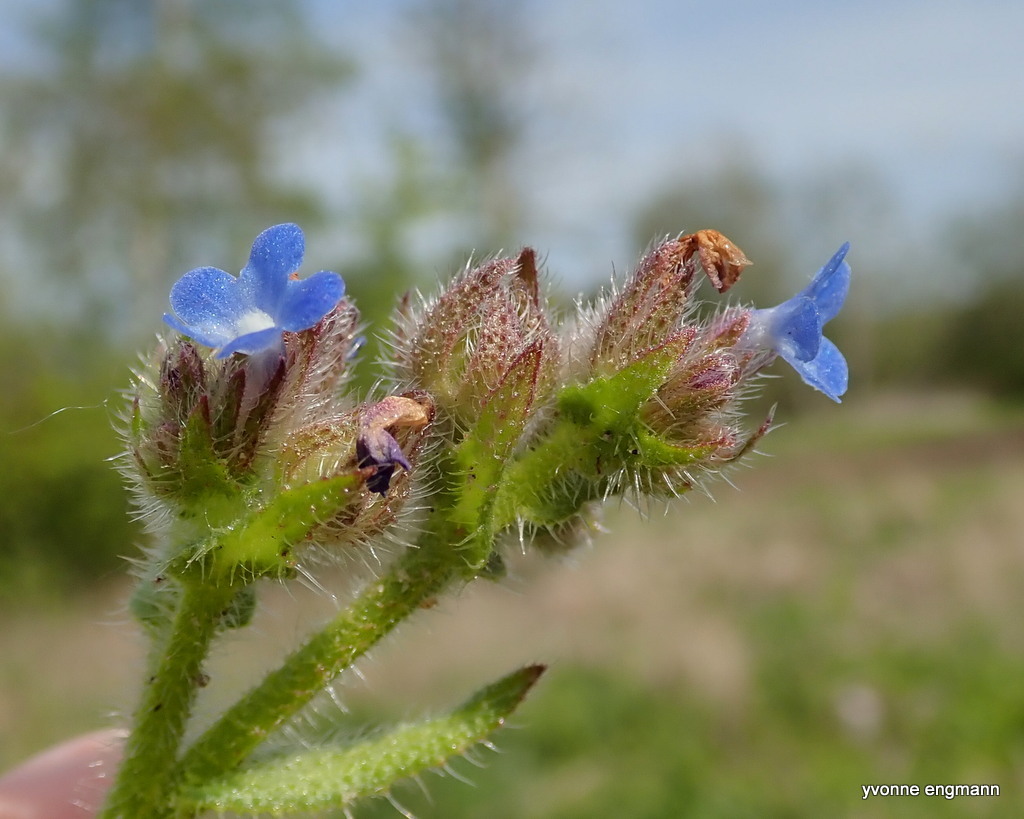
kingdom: Plantae
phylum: Tracheophyta
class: Magnoliopsida
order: Boraginales
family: Boraginaceae
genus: Lycopsis
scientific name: Lycopsis arvensis
